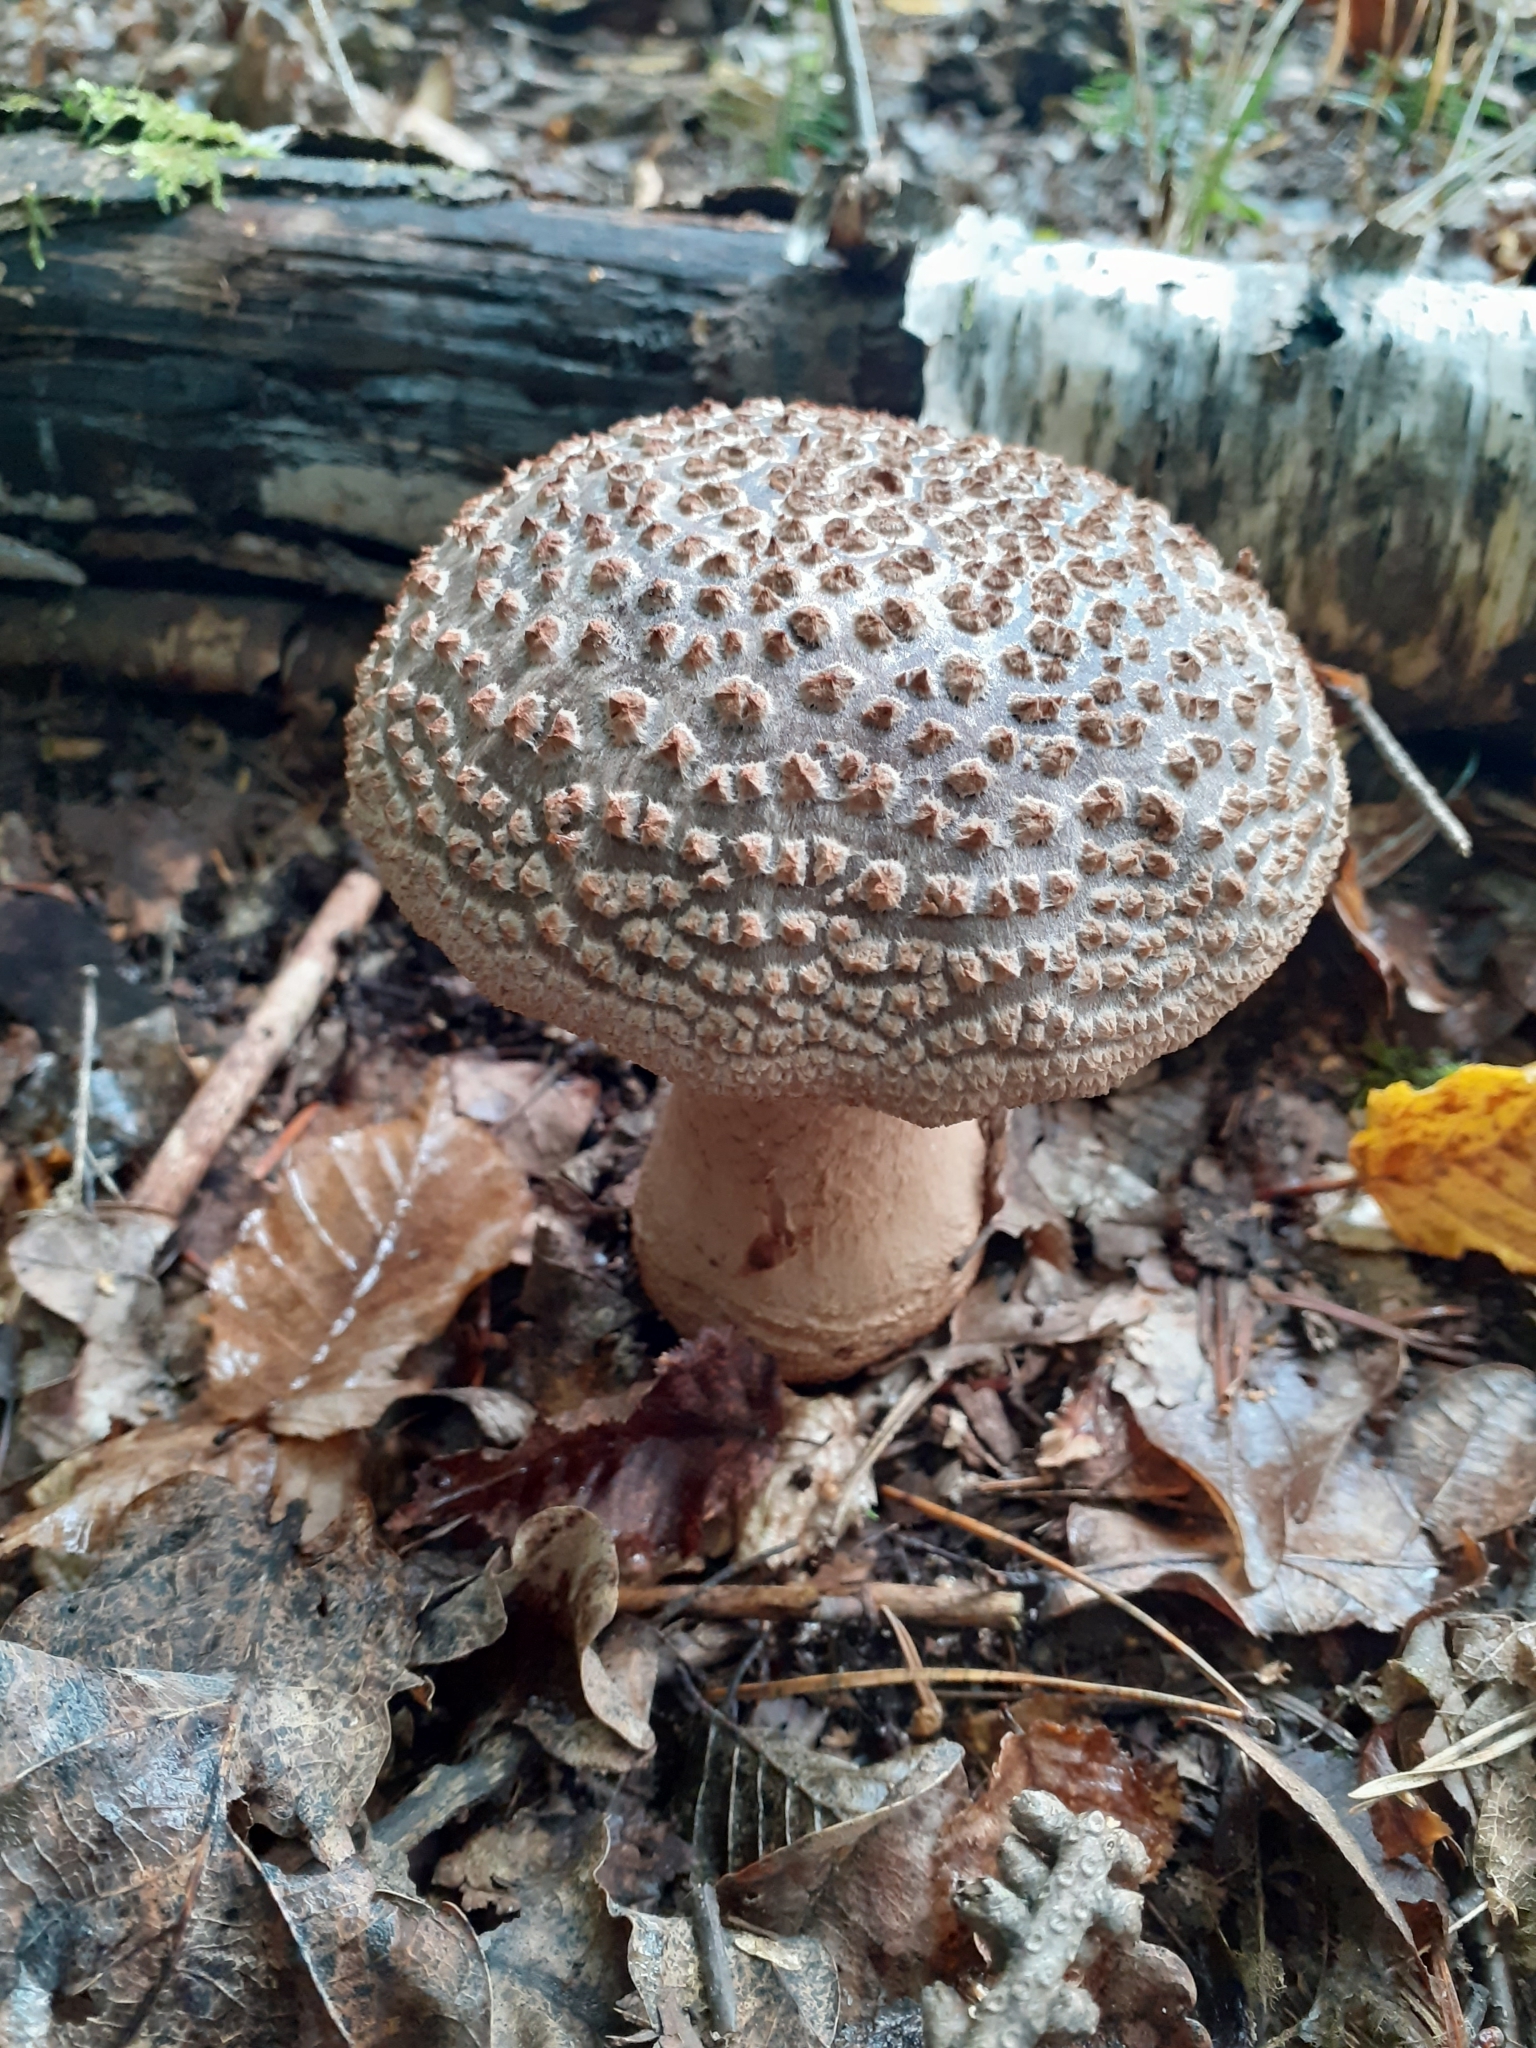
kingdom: Fungi
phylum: Basidiomycota
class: Agaricomycetes
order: Agaricales
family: Amanitaceae
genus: Amanita
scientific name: Amanita rubescens
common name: Blusher
